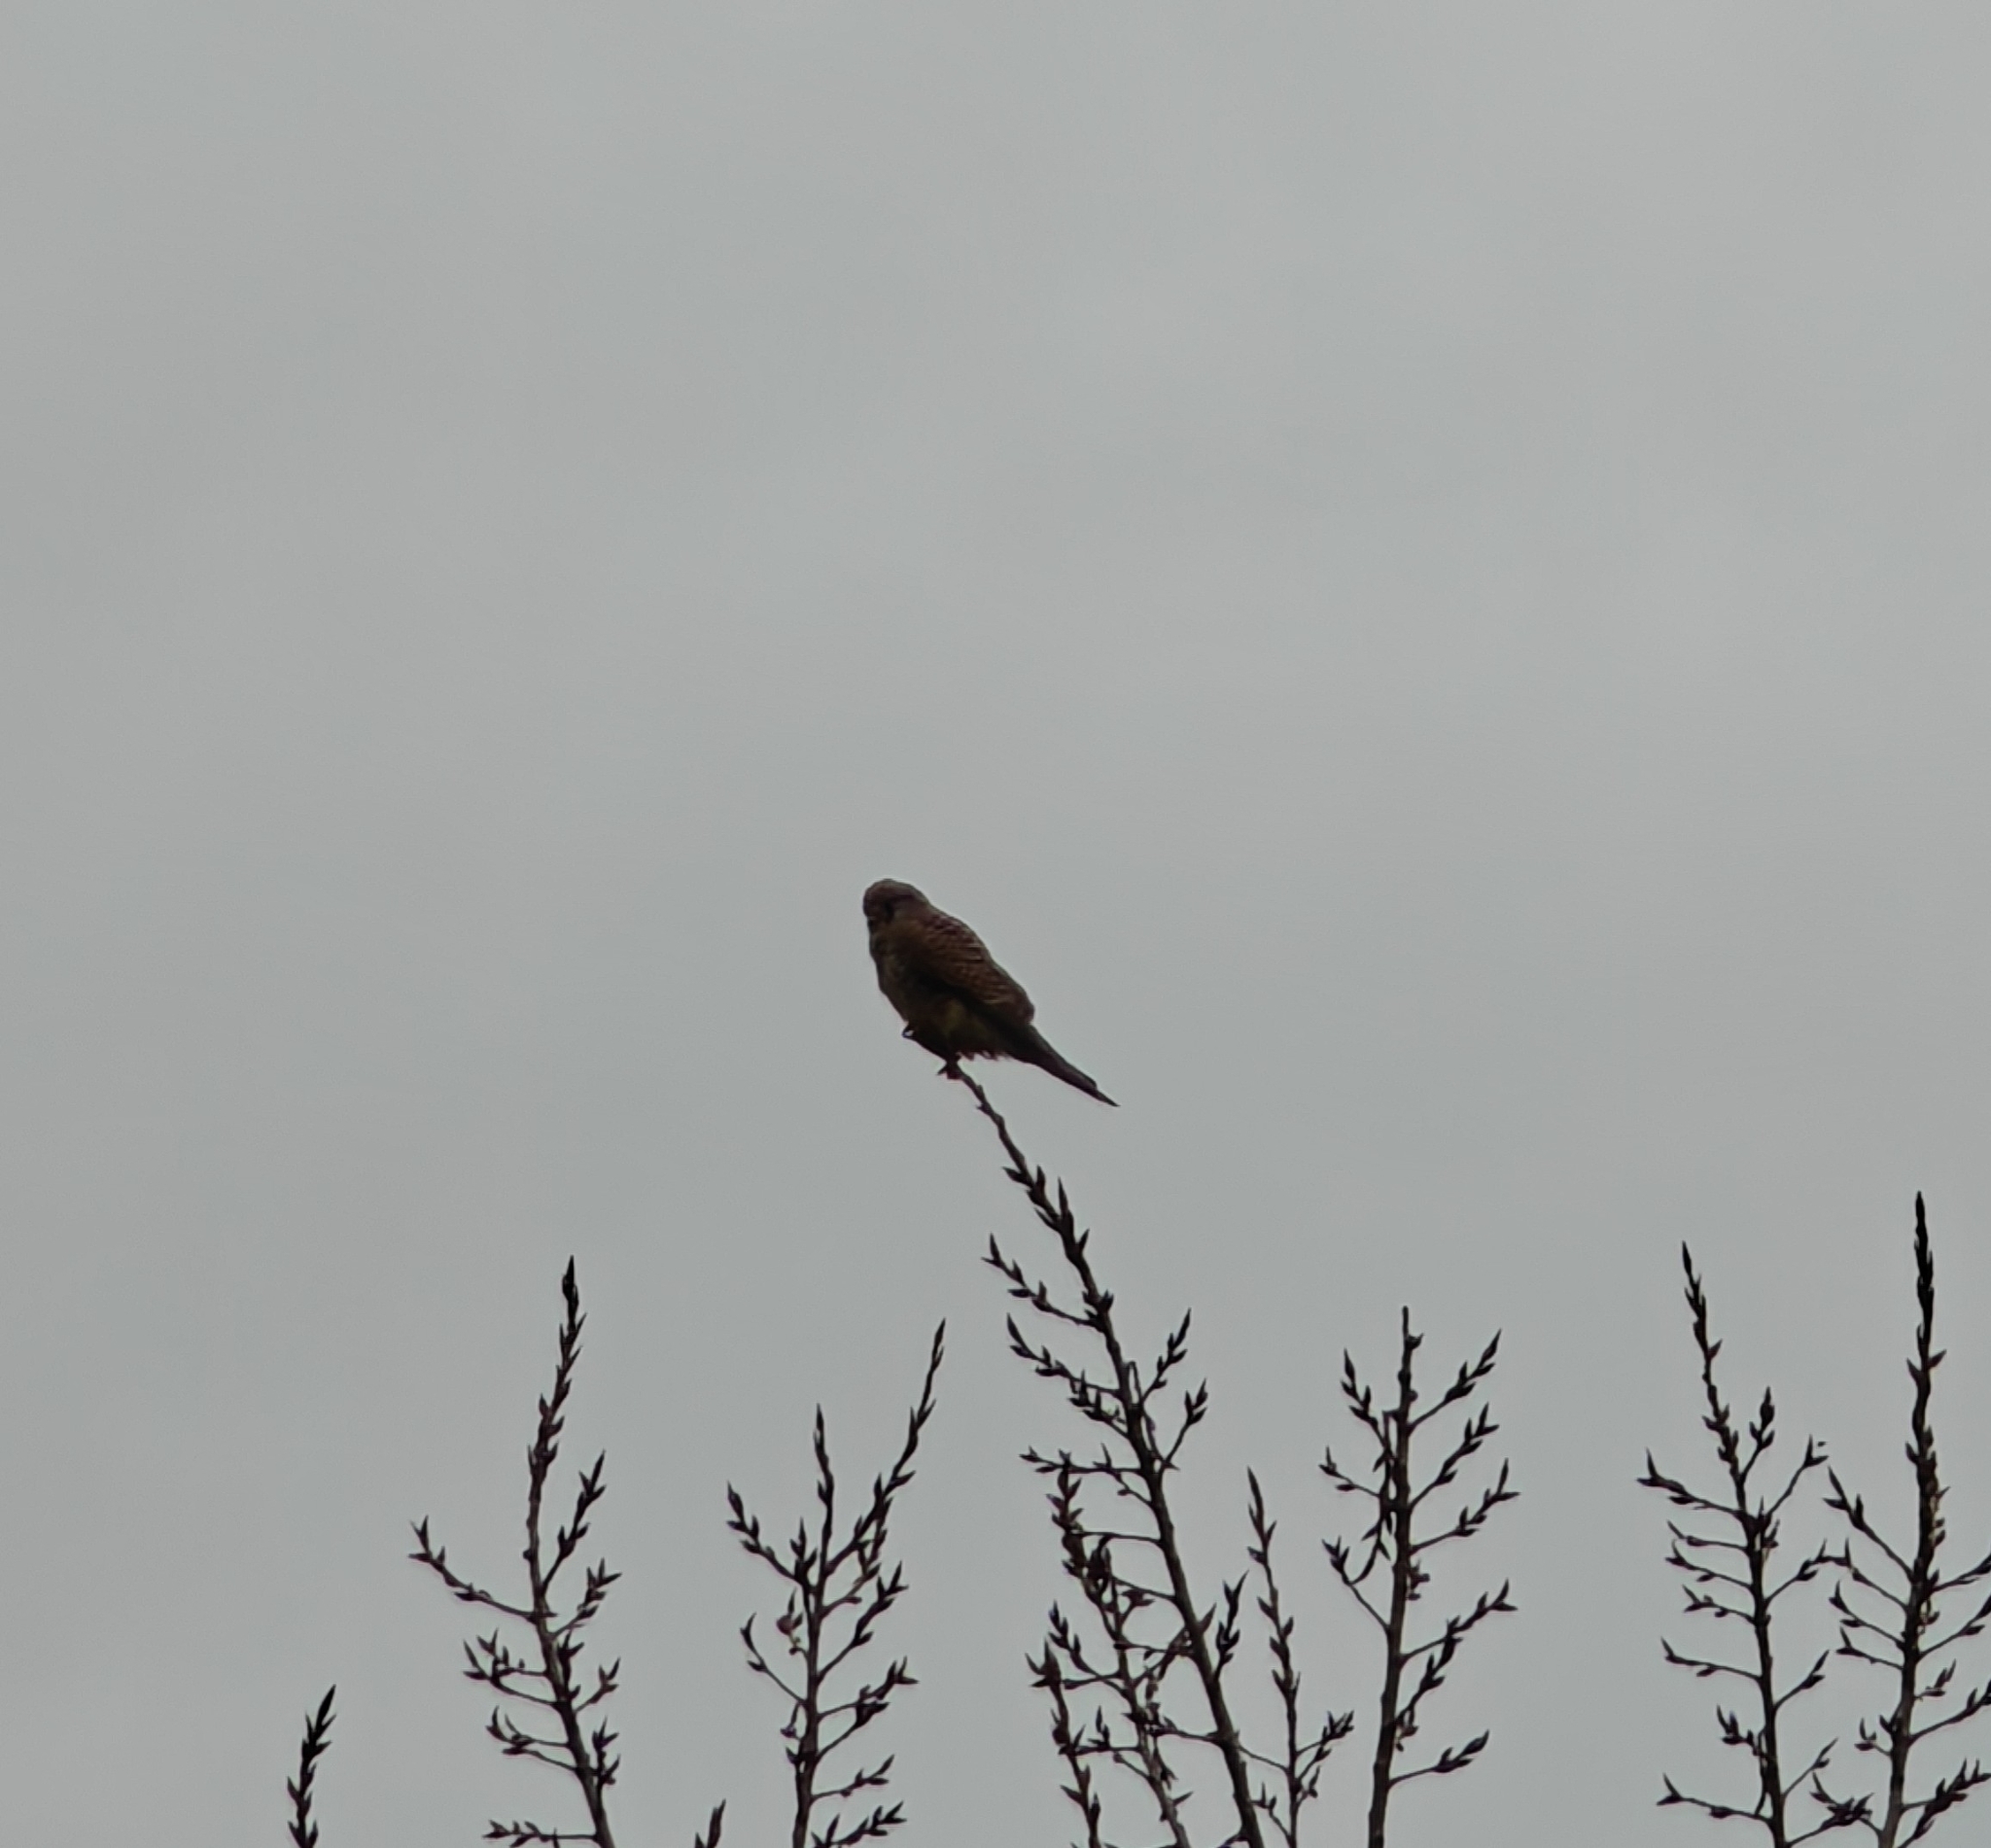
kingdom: Animalia
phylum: Chordata
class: Aves
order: Falconiformes
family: Falconidae
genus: Falco
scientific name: Falco tinnunculus
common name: Common kestrel
